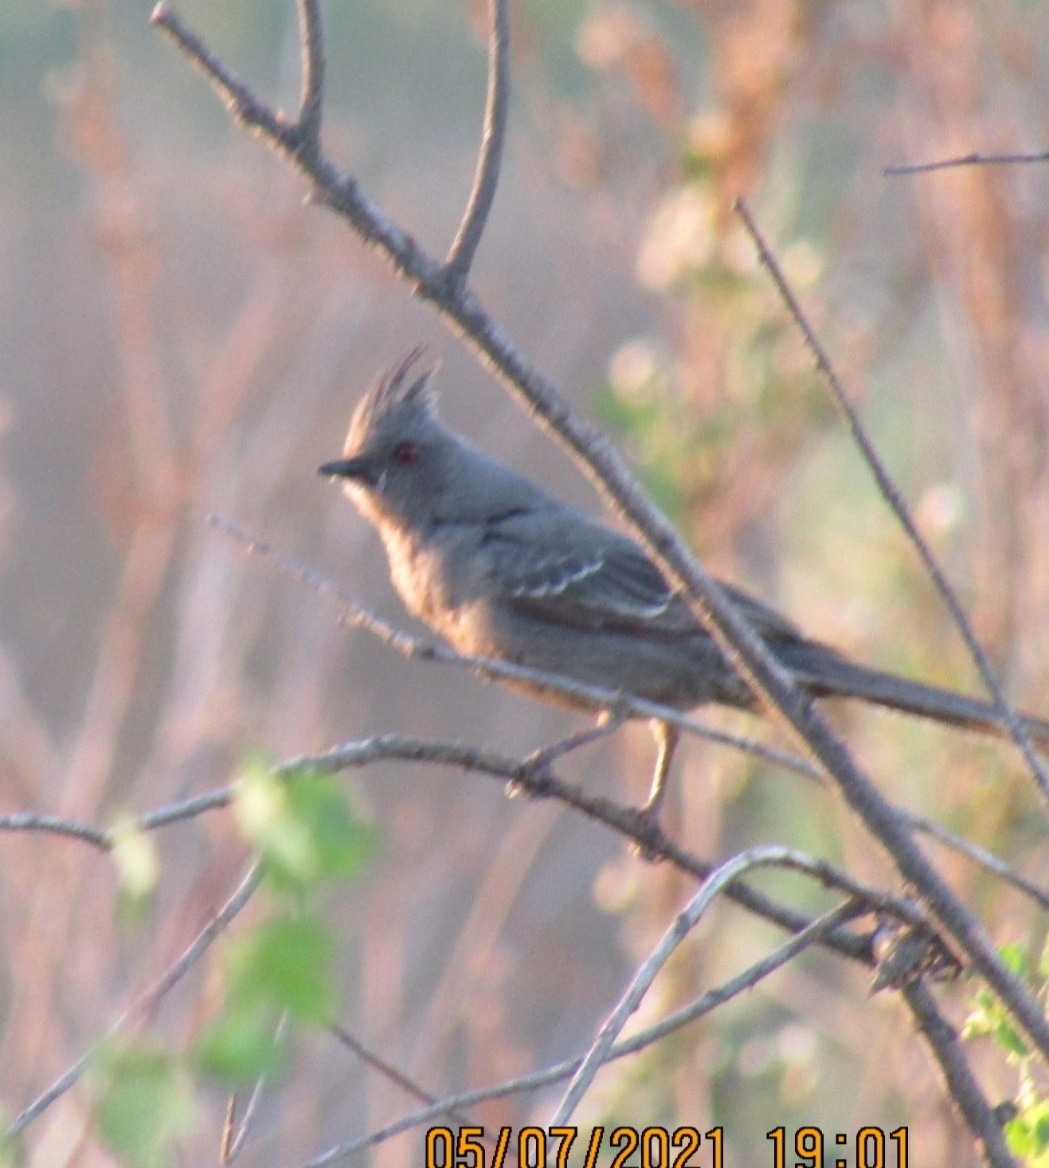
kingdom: Animalia
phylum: Chordata
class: Aves
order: Passeriformes
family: Ptilogonatidae
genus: Phainopepla
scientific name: Phainopepla nitens
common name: Phainopepla
